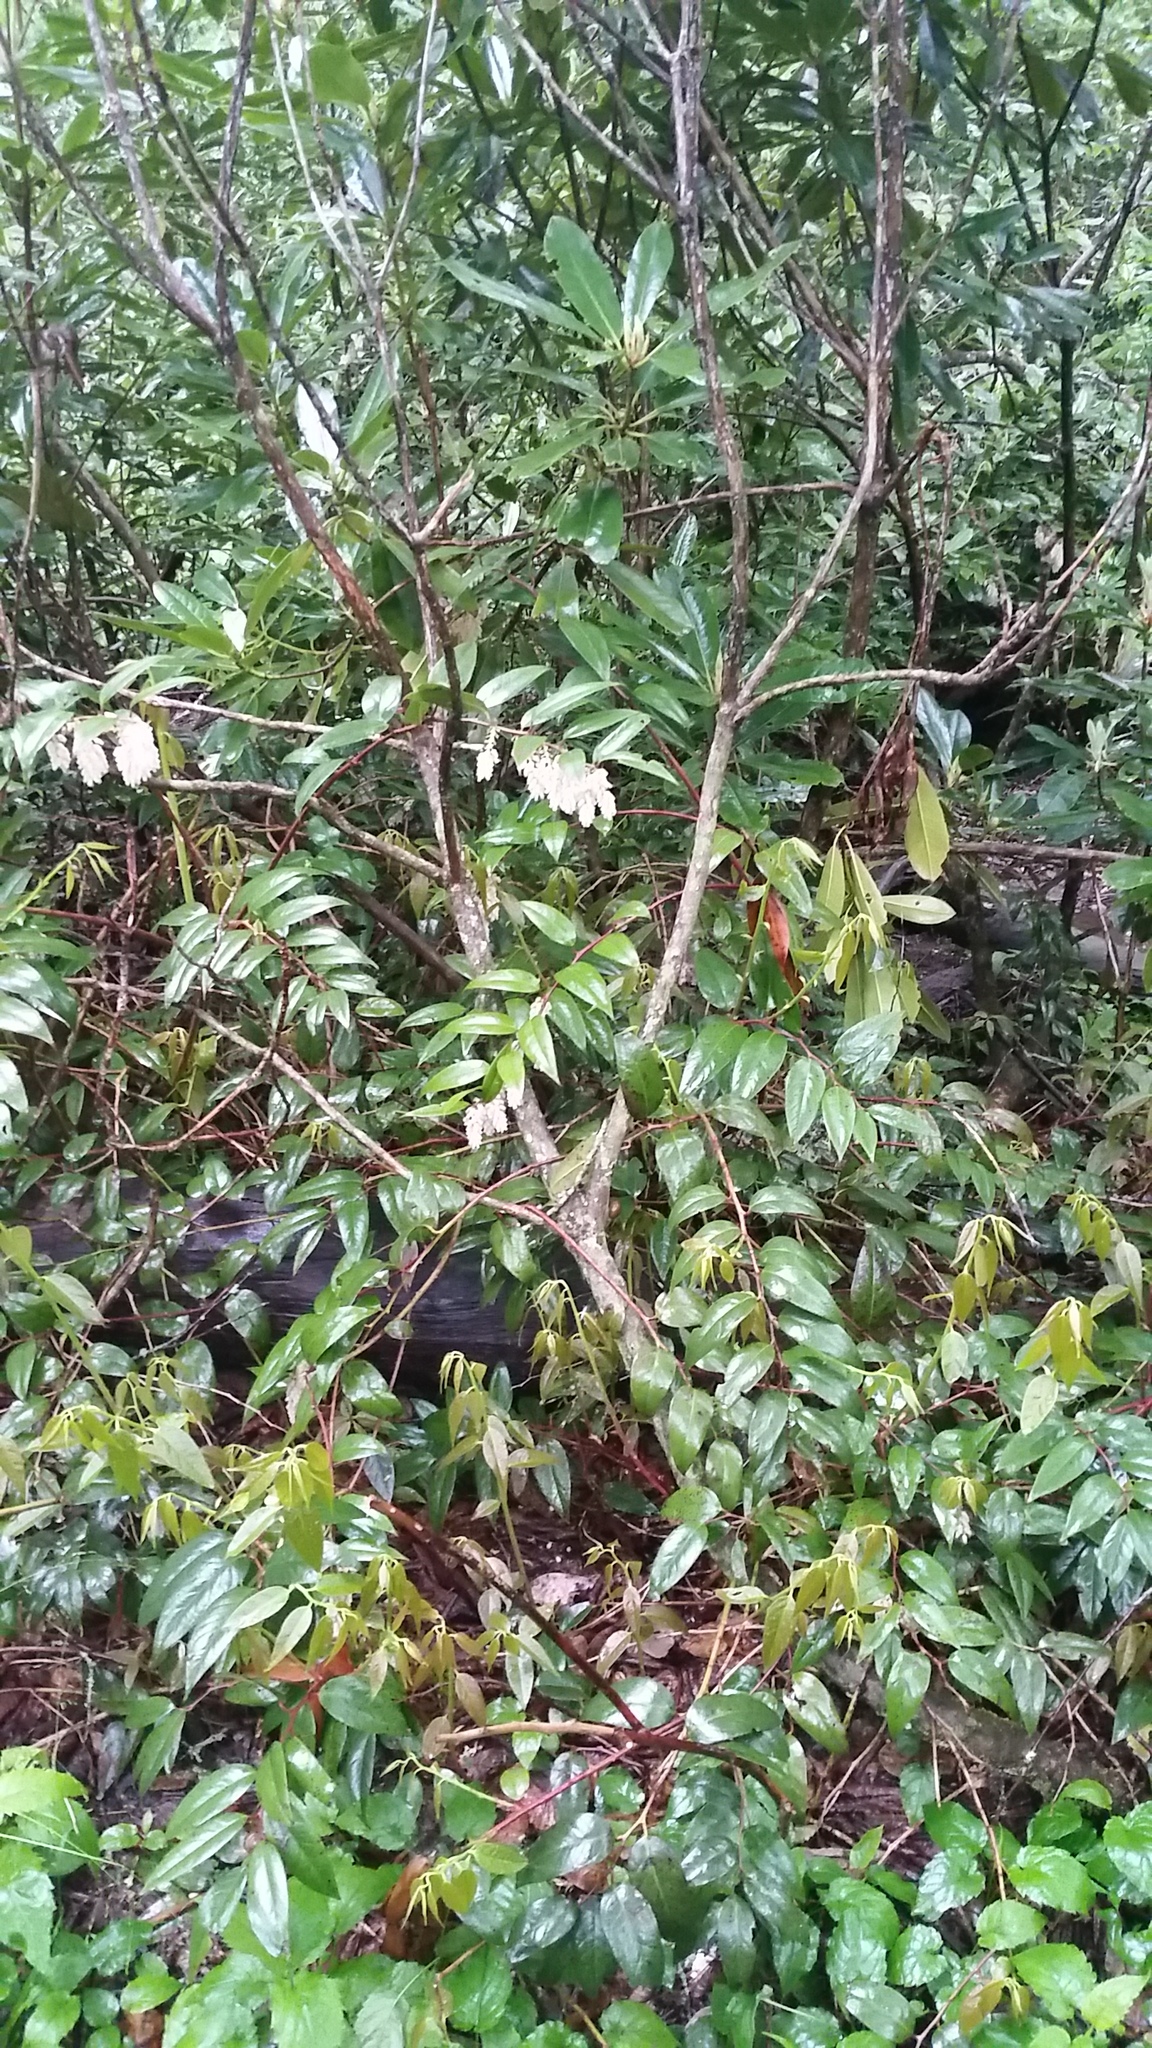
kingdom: Plantae
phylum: Tracheophyta
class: Magnoliopsida
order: Ericales
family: Ericaceae
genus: Leucothoe
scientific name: Leucothoe fontanesiana
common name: Fetterbush
